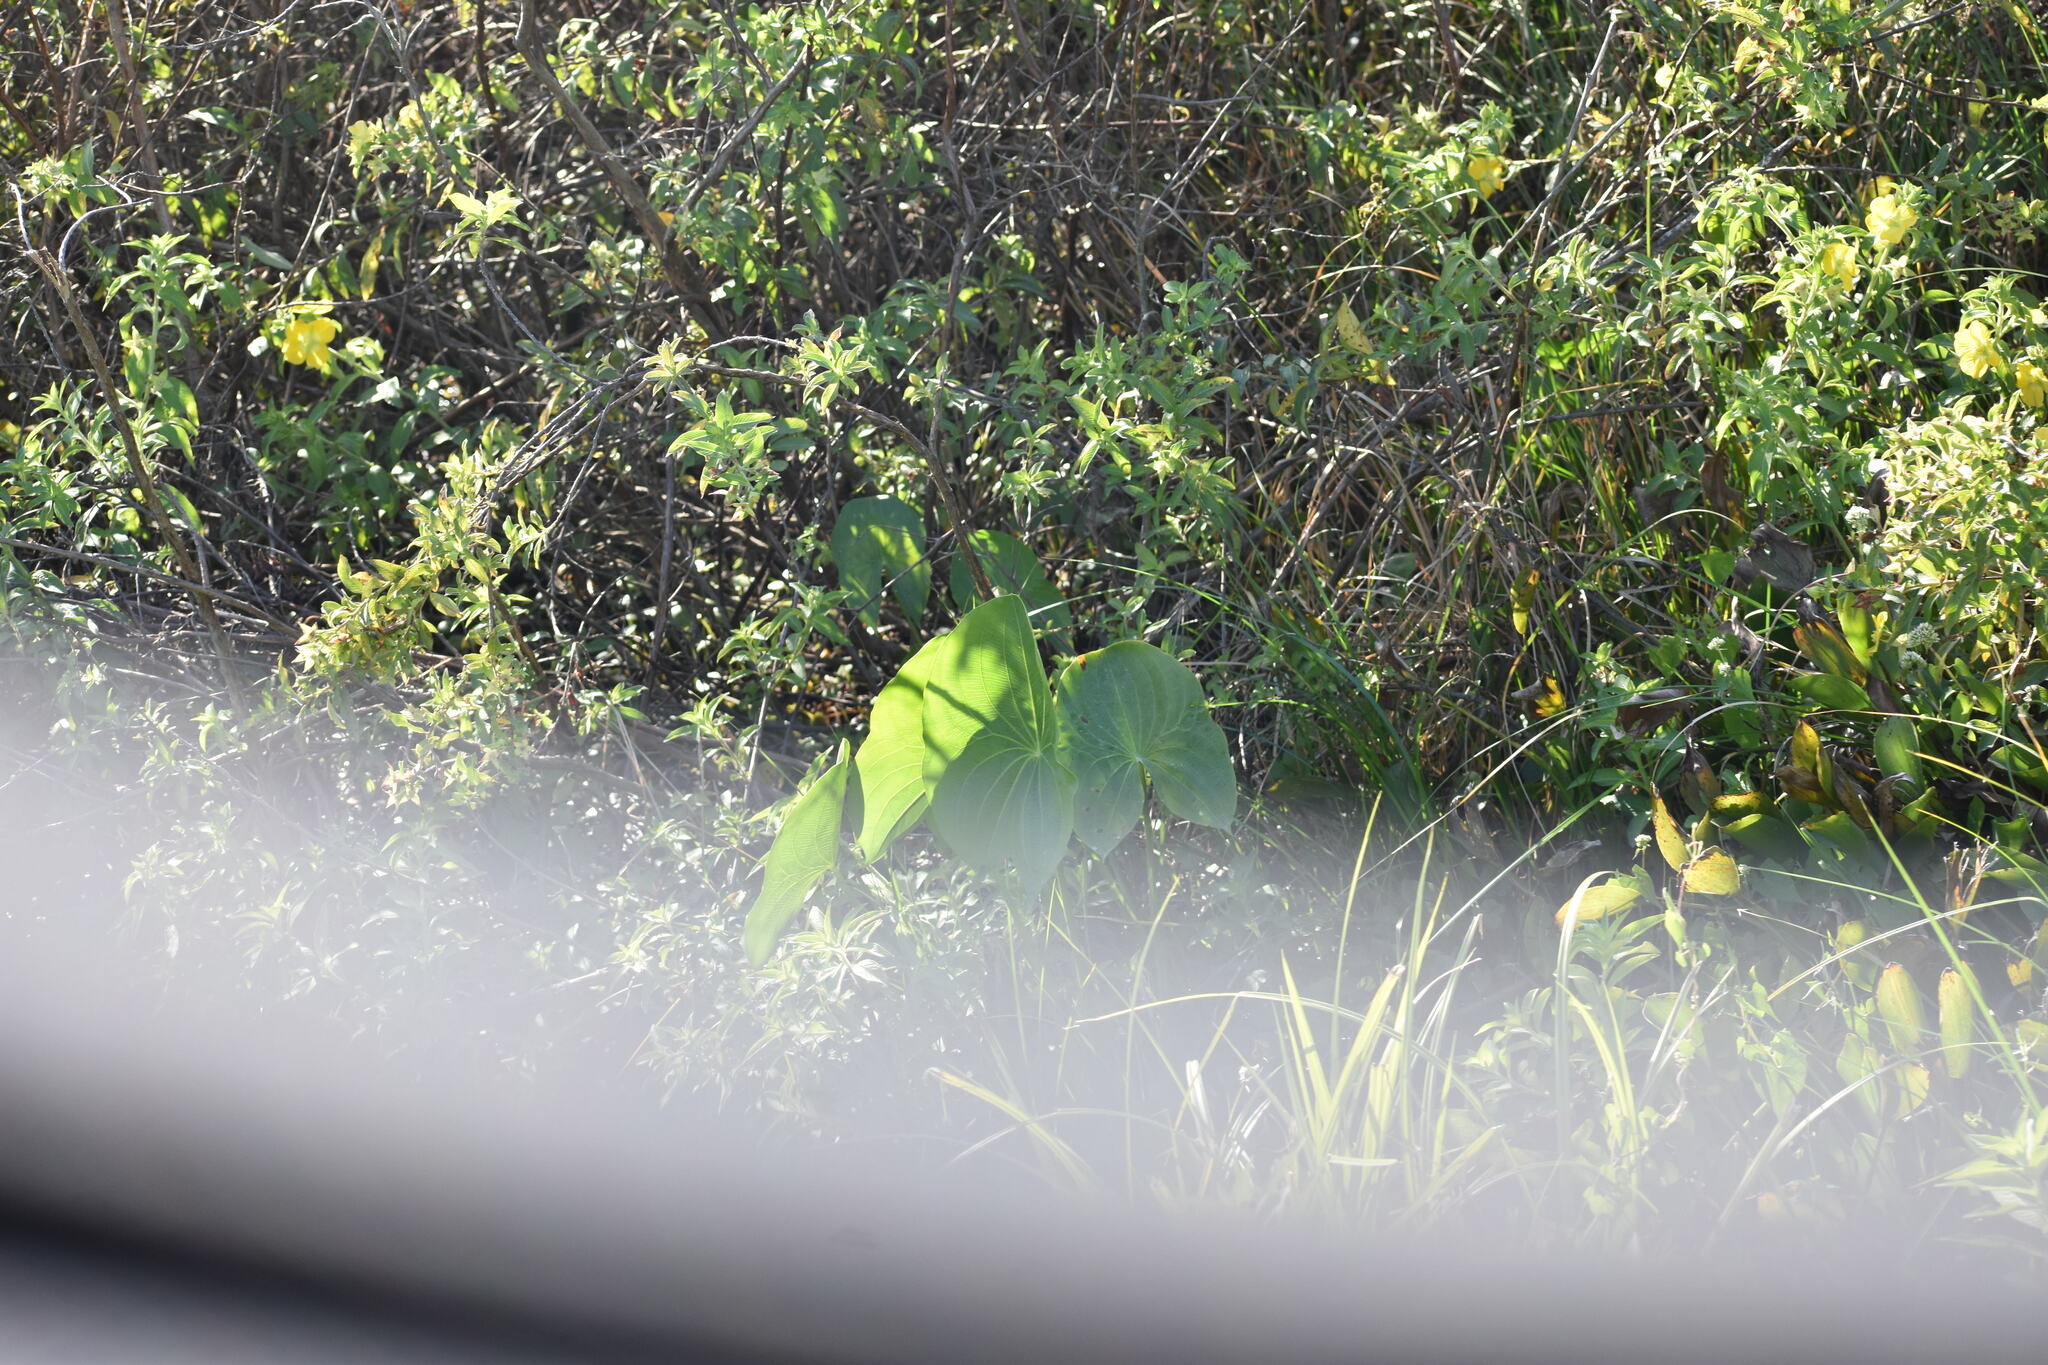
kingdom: Plantae
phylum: Tracheophyta
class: Liliopsida
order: Alismatales
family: Alismataceae
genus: Sagittaria
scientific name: Sagittaria latifolia
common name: Duck-potato
